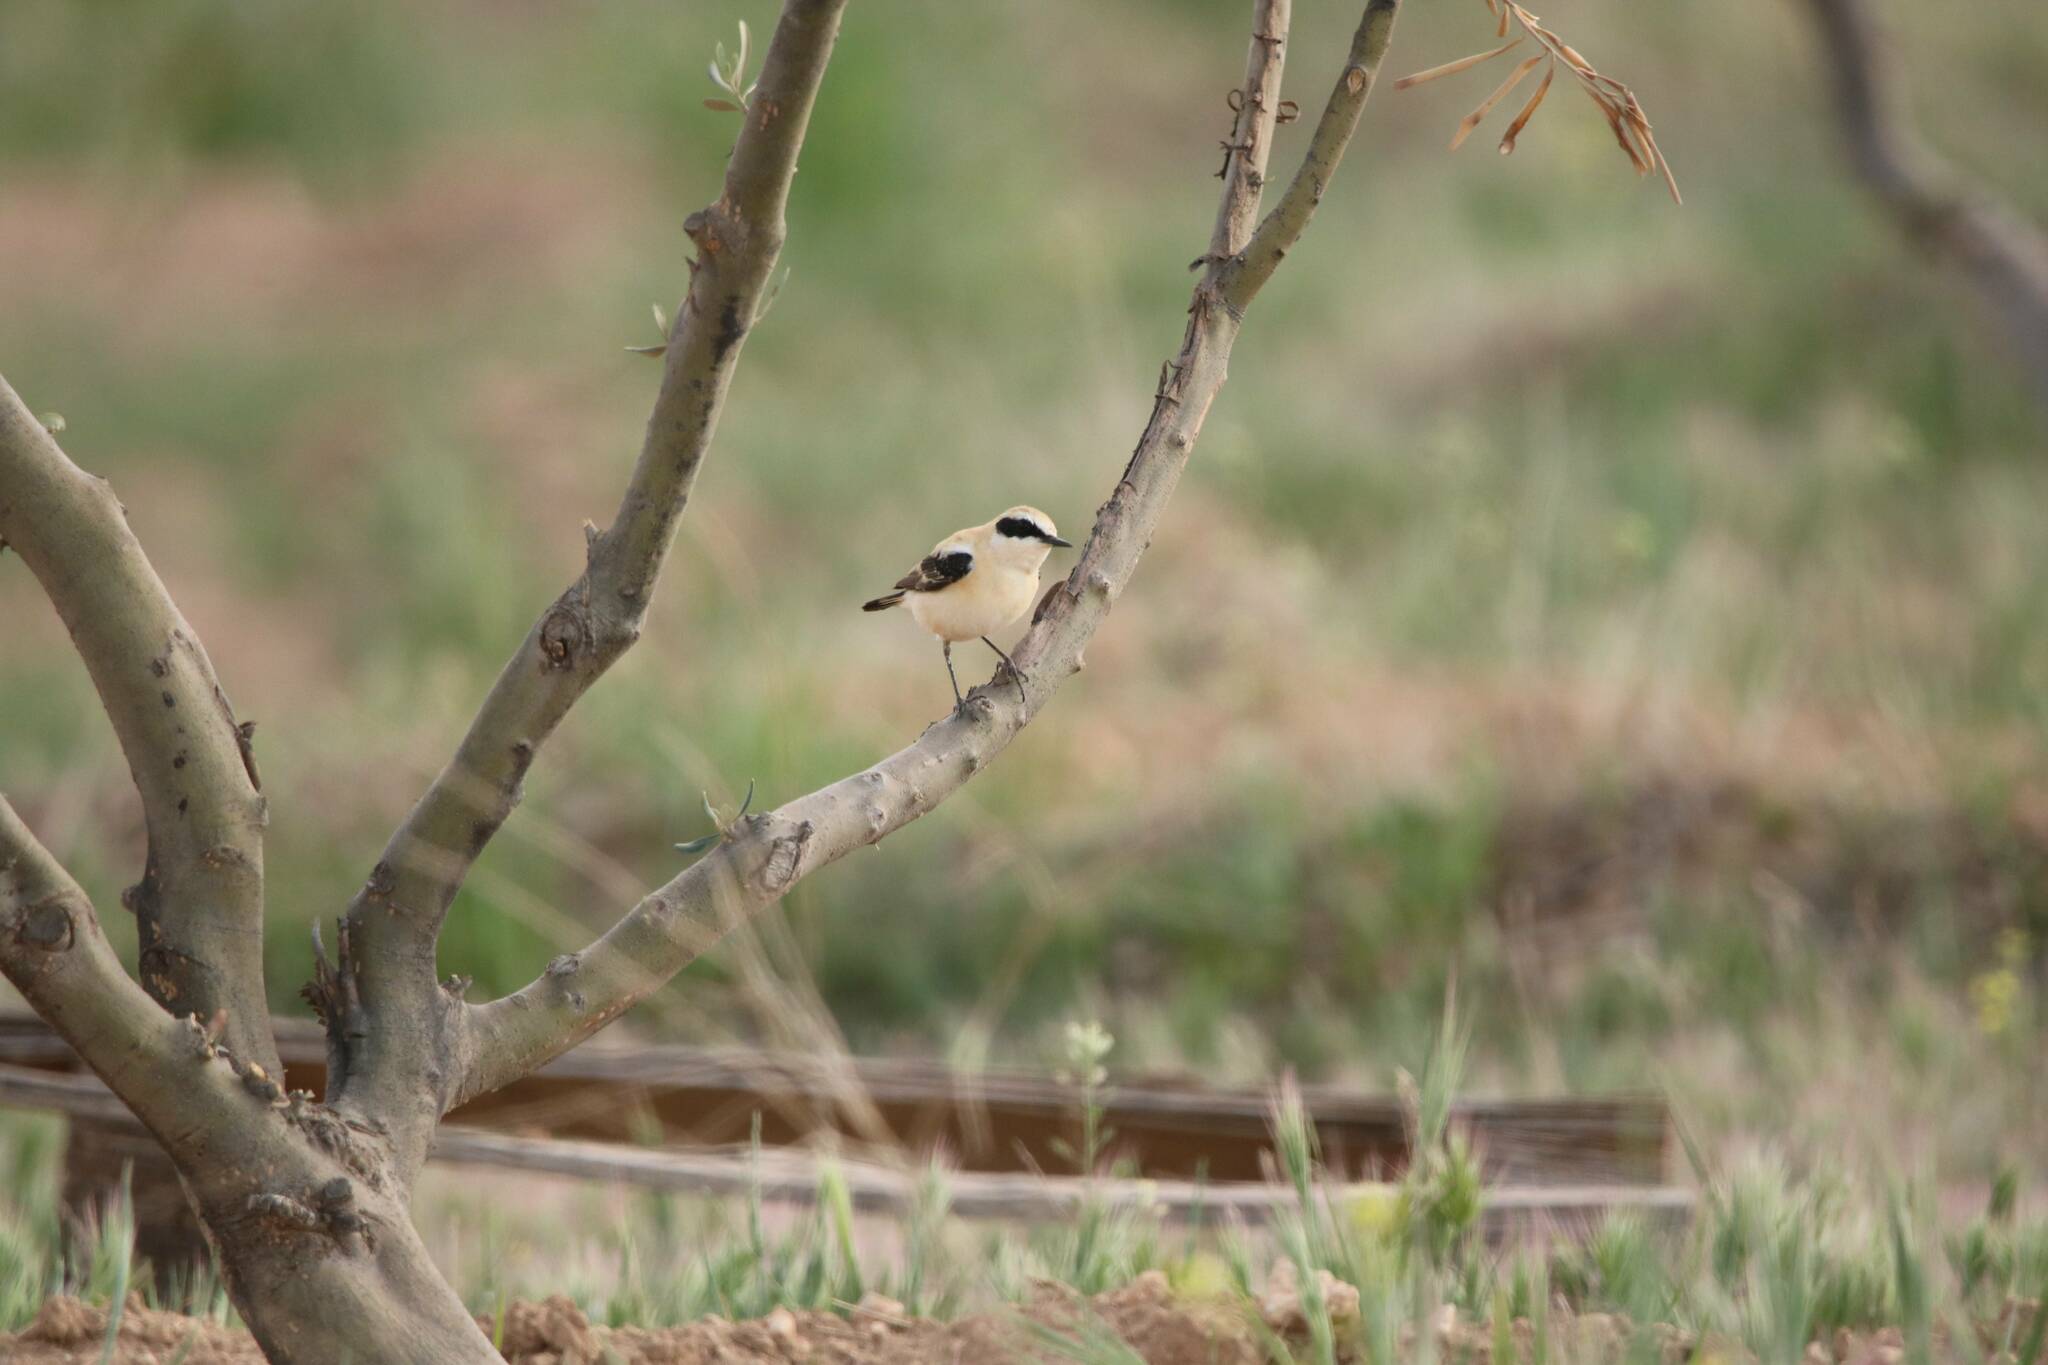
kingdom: Animalia
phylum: Chordata
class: Aves
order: Passeriformes
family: Muscicapidae
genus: Oenanthe
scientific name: Oenanthe hispanica
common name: Black-eared wheatear
